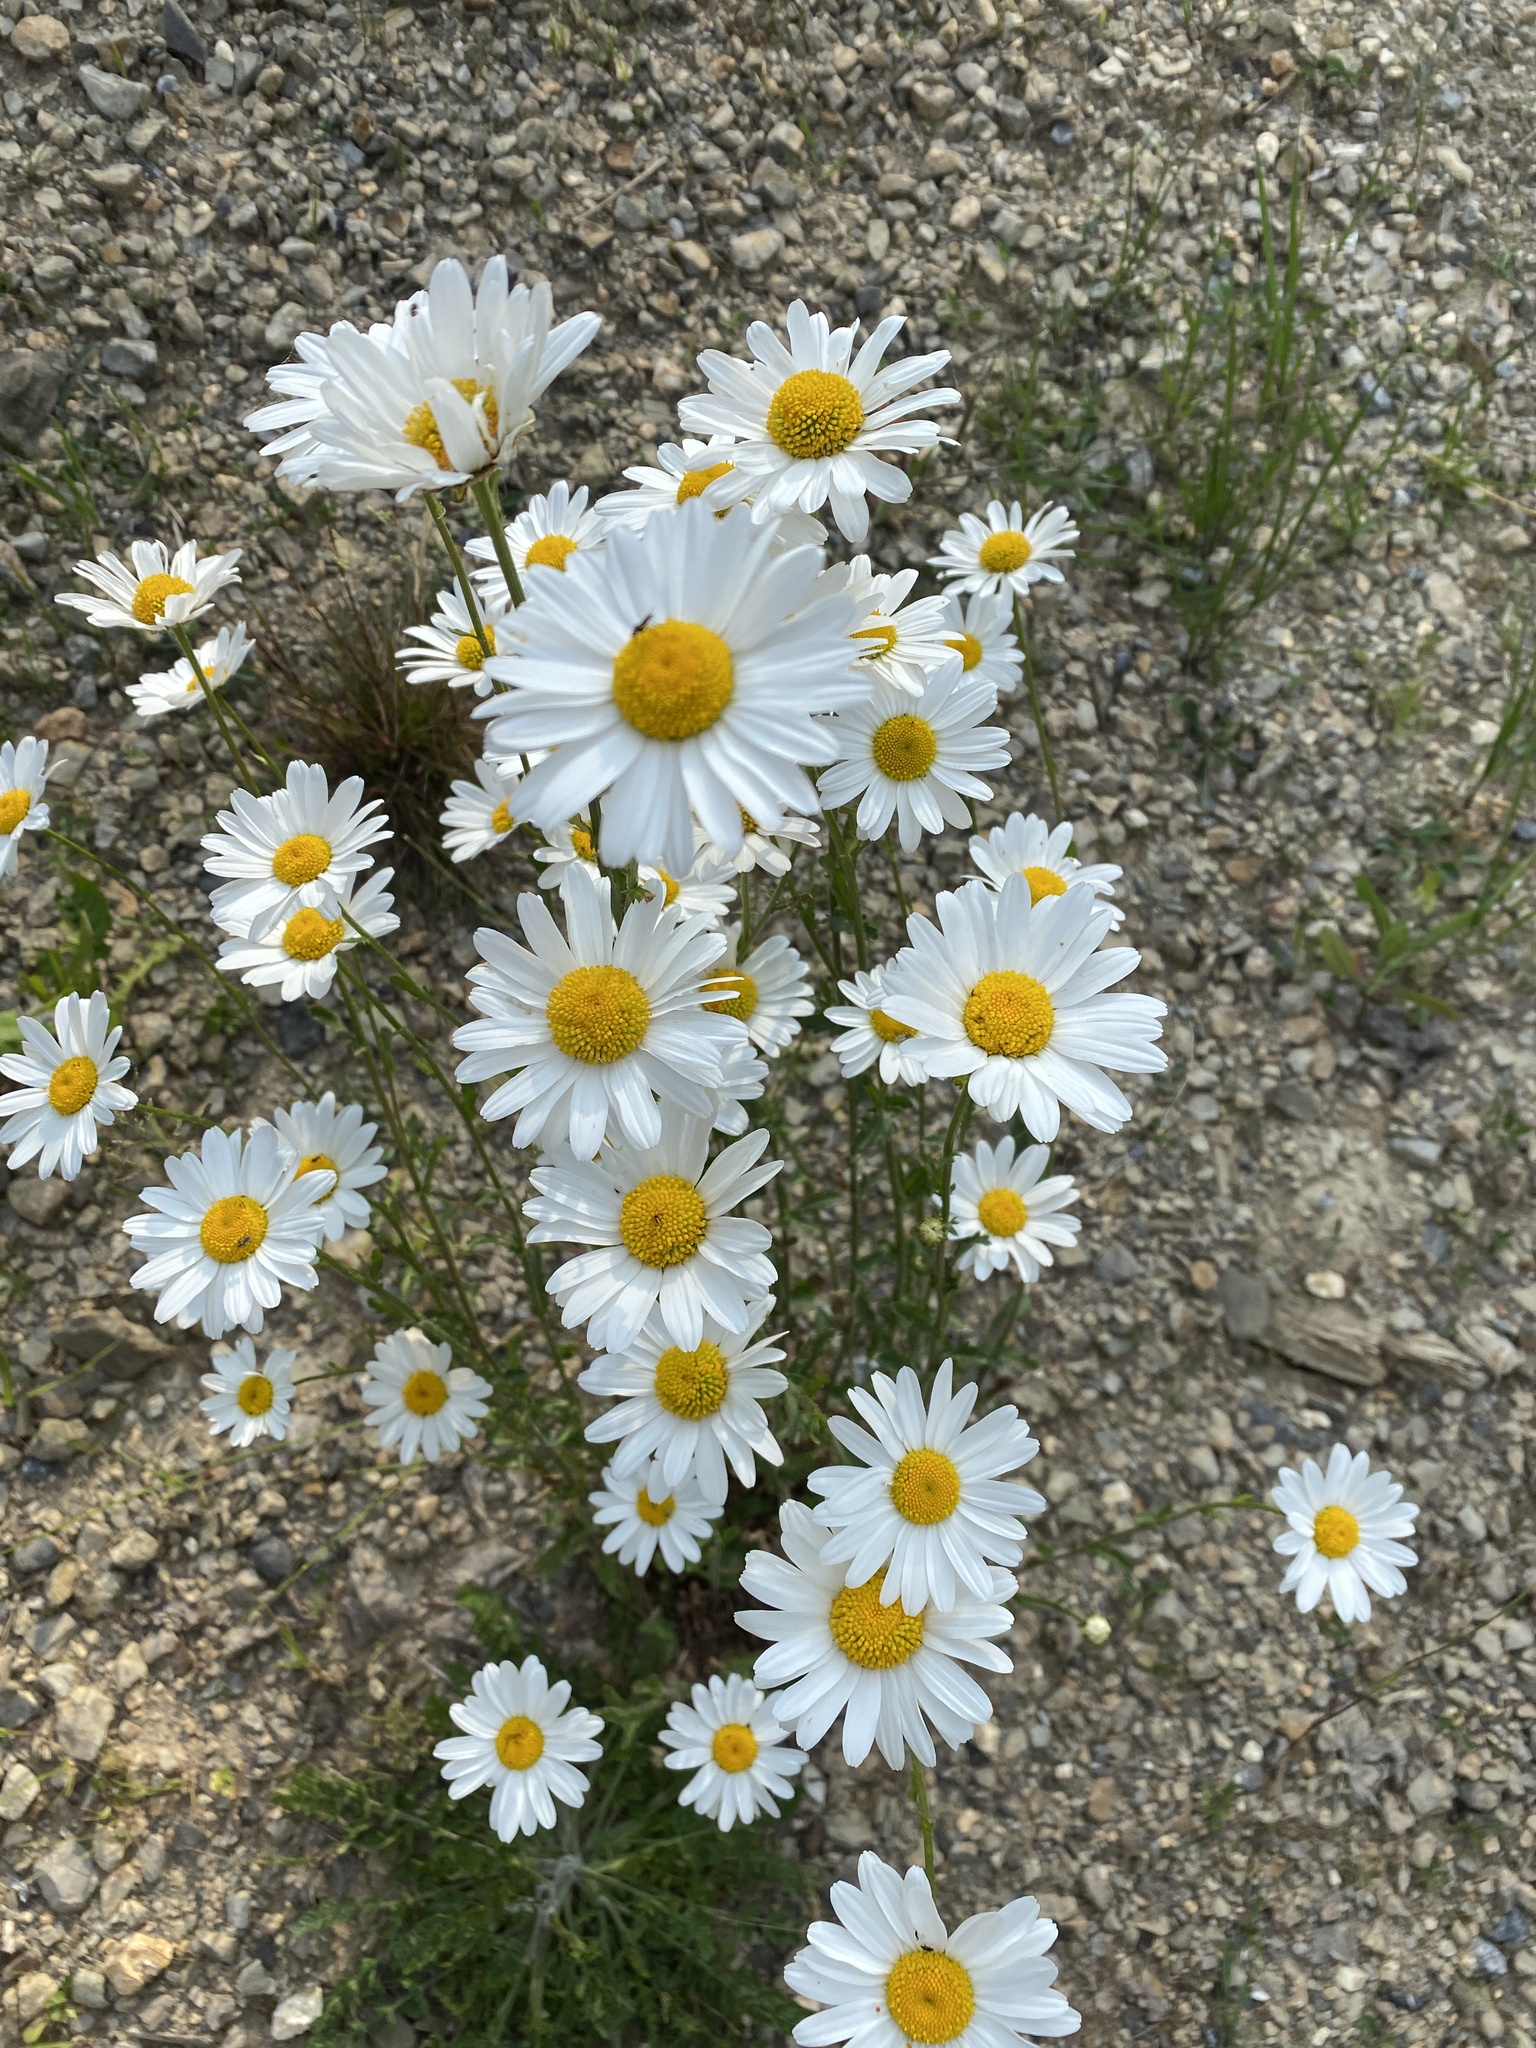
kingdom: Plantae
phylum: Tracheophyta
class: Magnoliopsida
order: Asterales
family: Asteraceae
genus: Leucanthemum
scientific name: Leucanthemum vulgare
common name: Oxeye daisy
